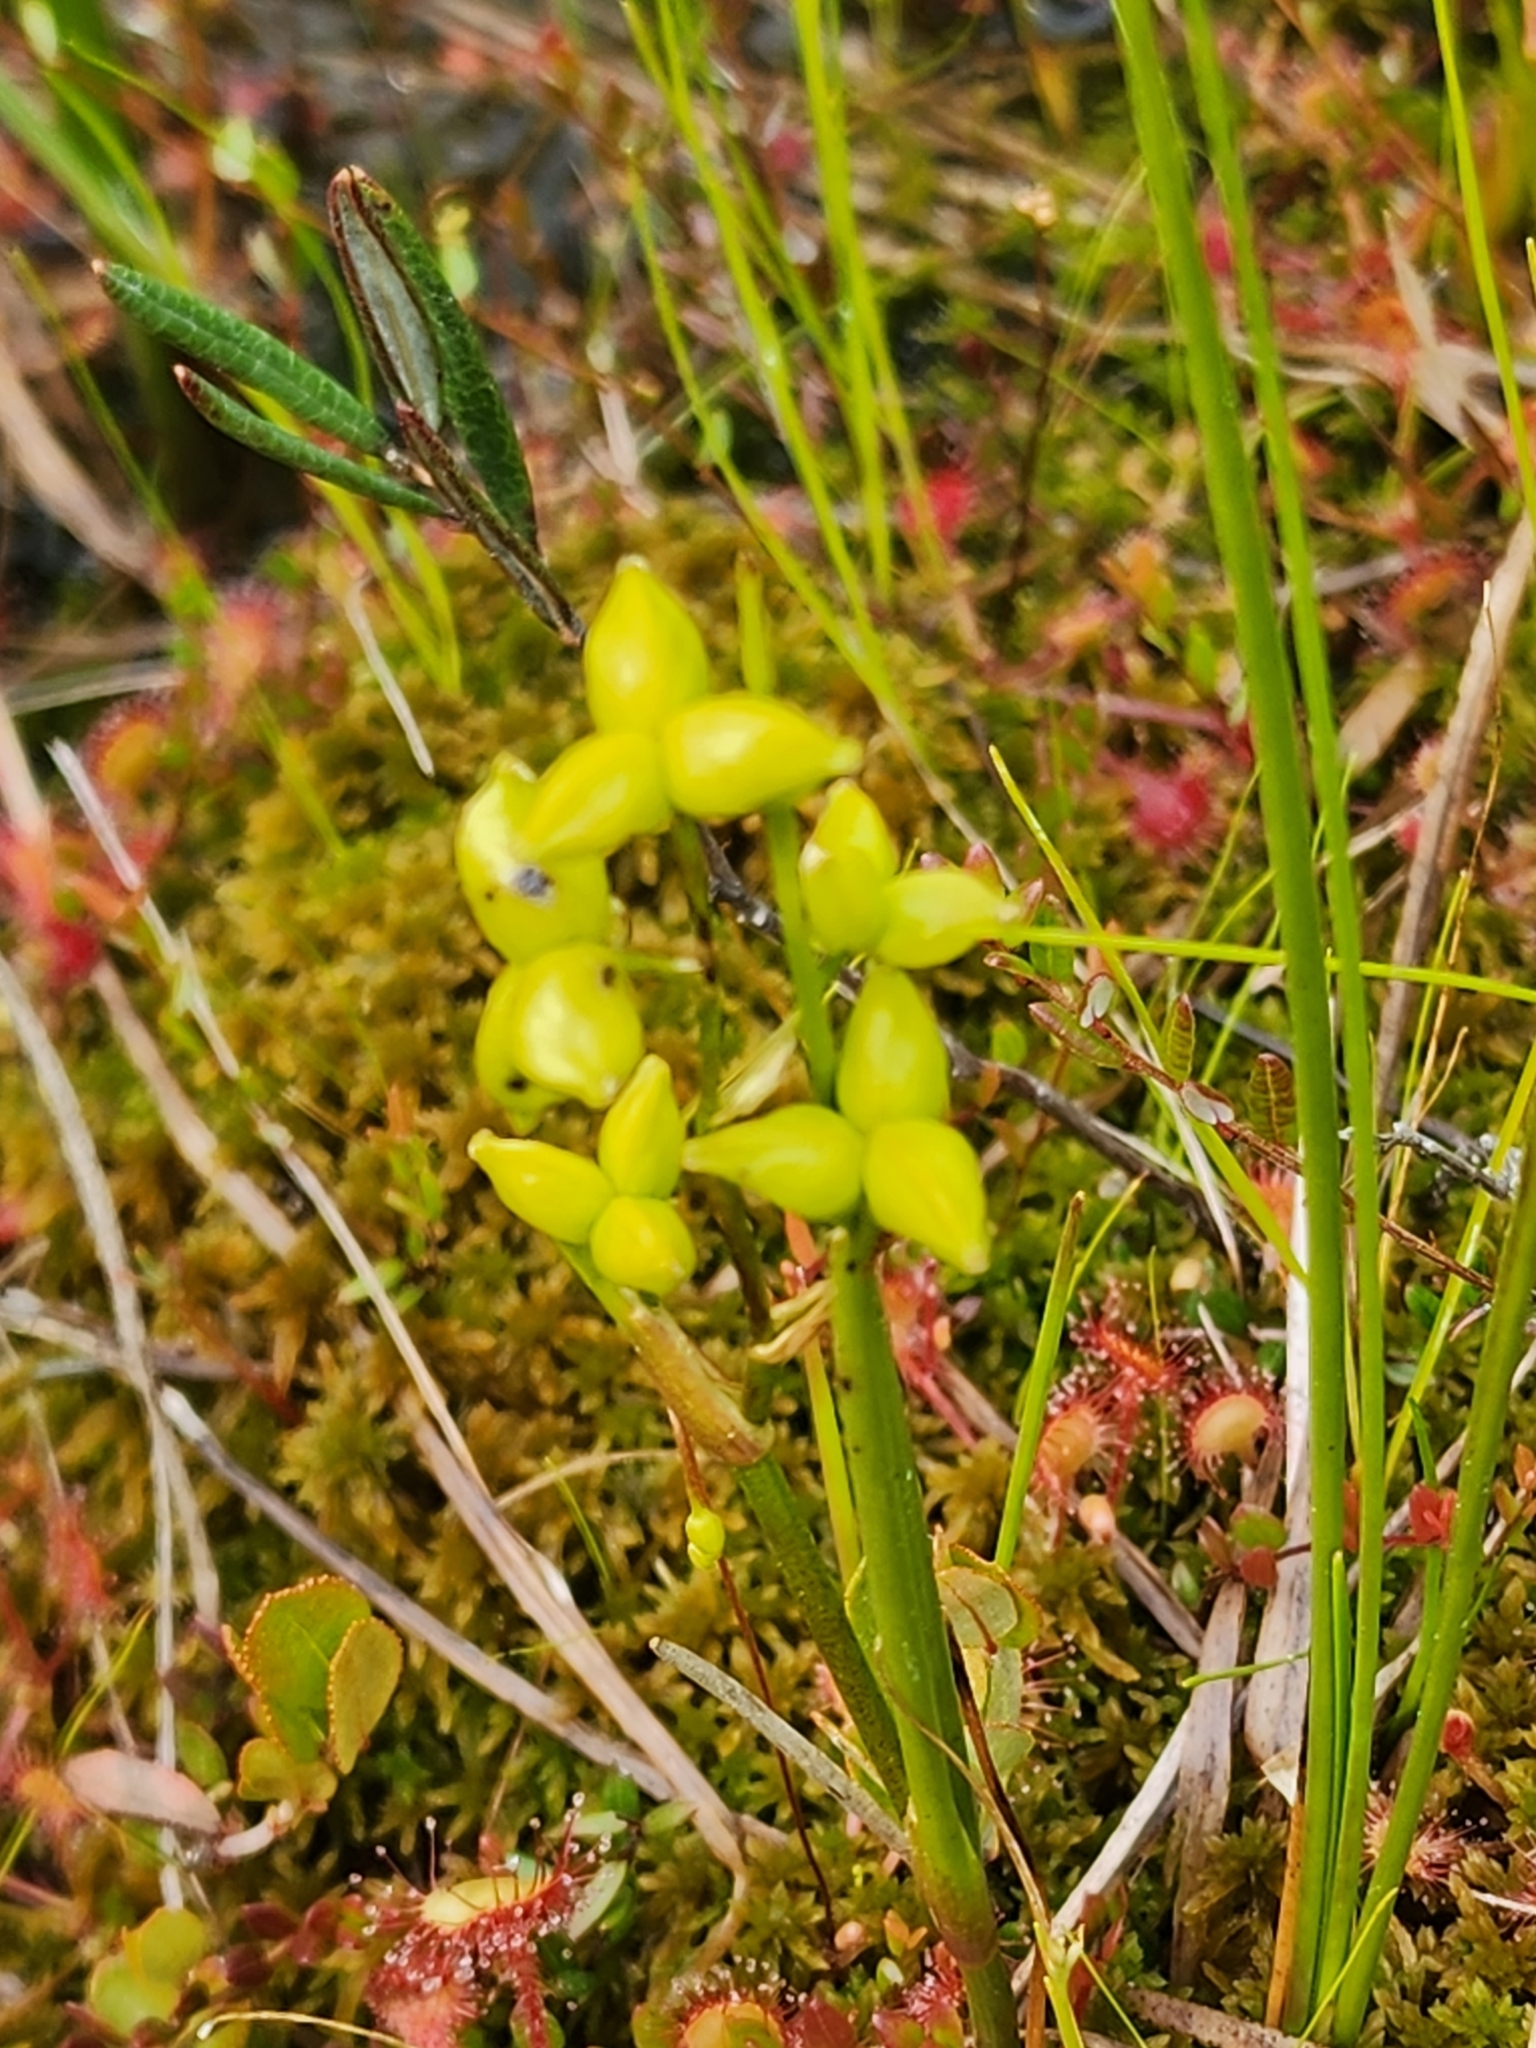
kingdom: Plantae
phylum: Tracheophyta
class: Liliopsida
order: Alismatales
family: Scheuchzeriaceae
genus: Scheuchzeria
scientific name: Scheuchzeria palustris
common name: Rannoch-rush
